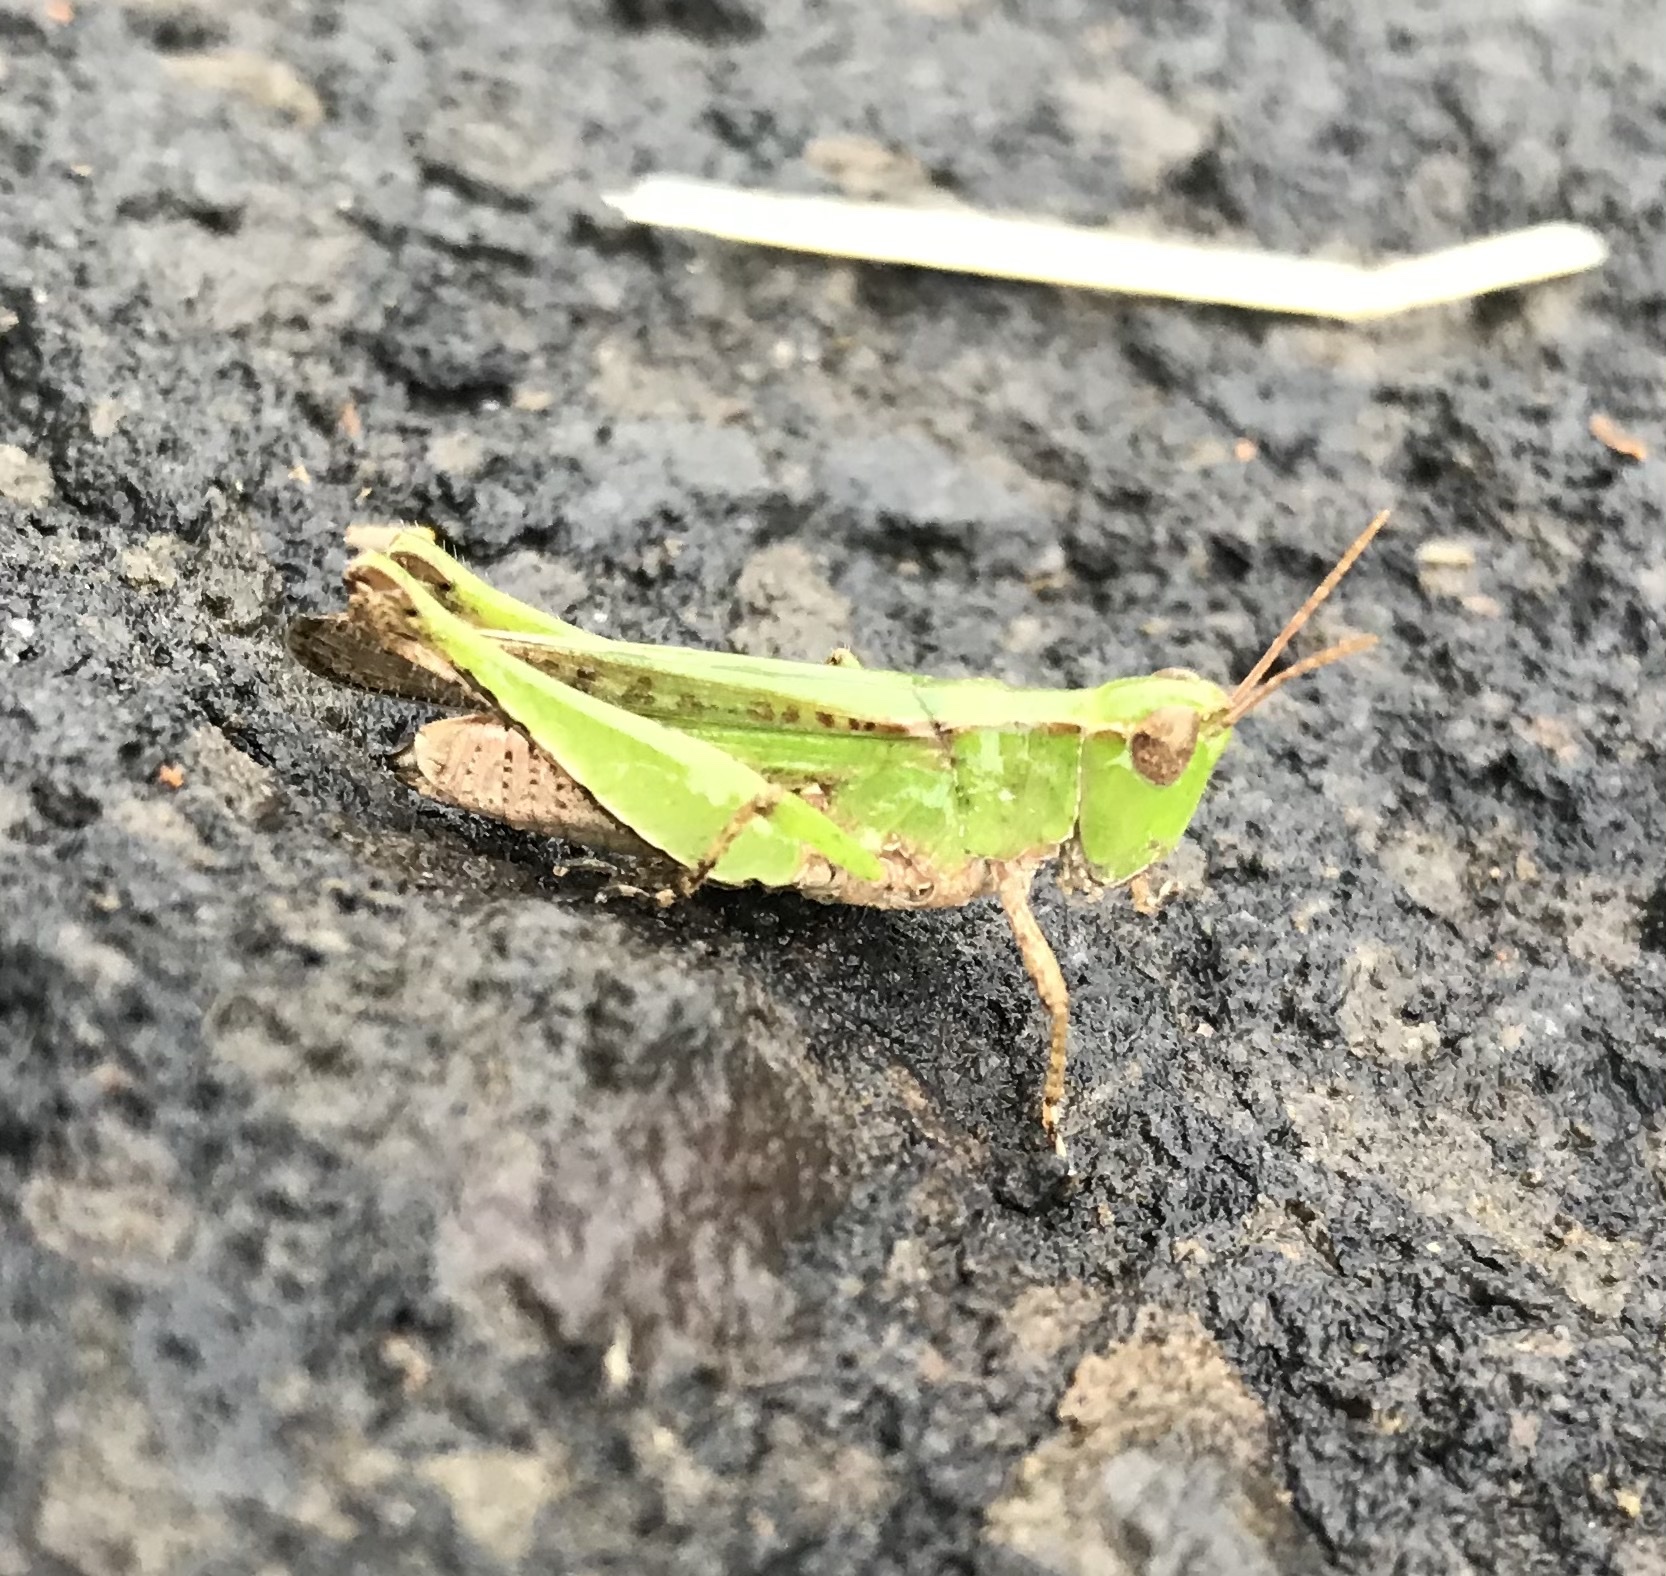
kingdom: Animalia
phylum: Arthropoda
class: Insecta
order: Orthoptera
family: Acrididae
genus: Orphulella
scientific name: Orphulella punctata
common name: Slant-faced grasshopper
